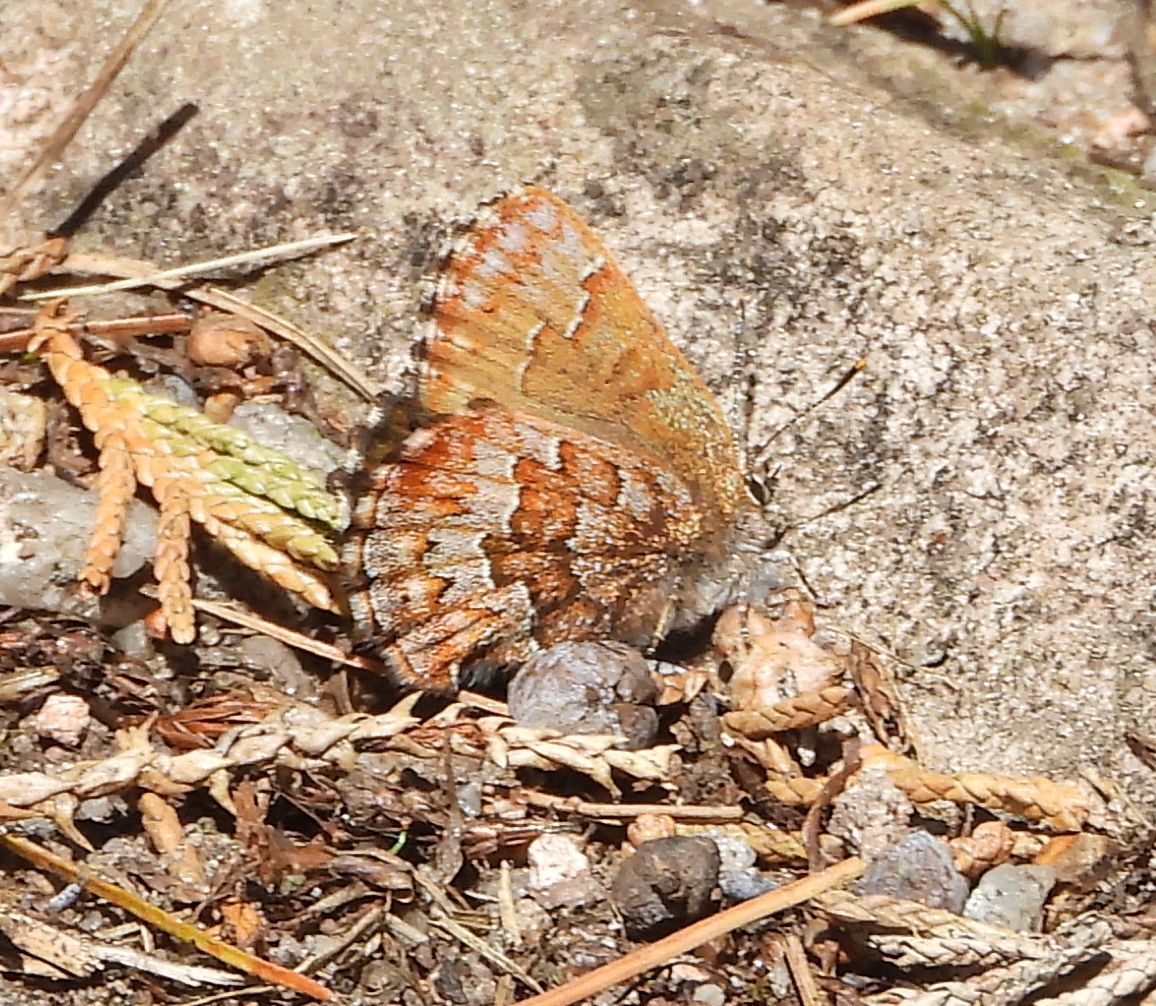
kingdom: Animalia
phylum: Arthropoda
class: Insecta
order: Lepidoptera
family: Lycaenidae
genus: Incisalia
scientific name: Incisalia niphon
